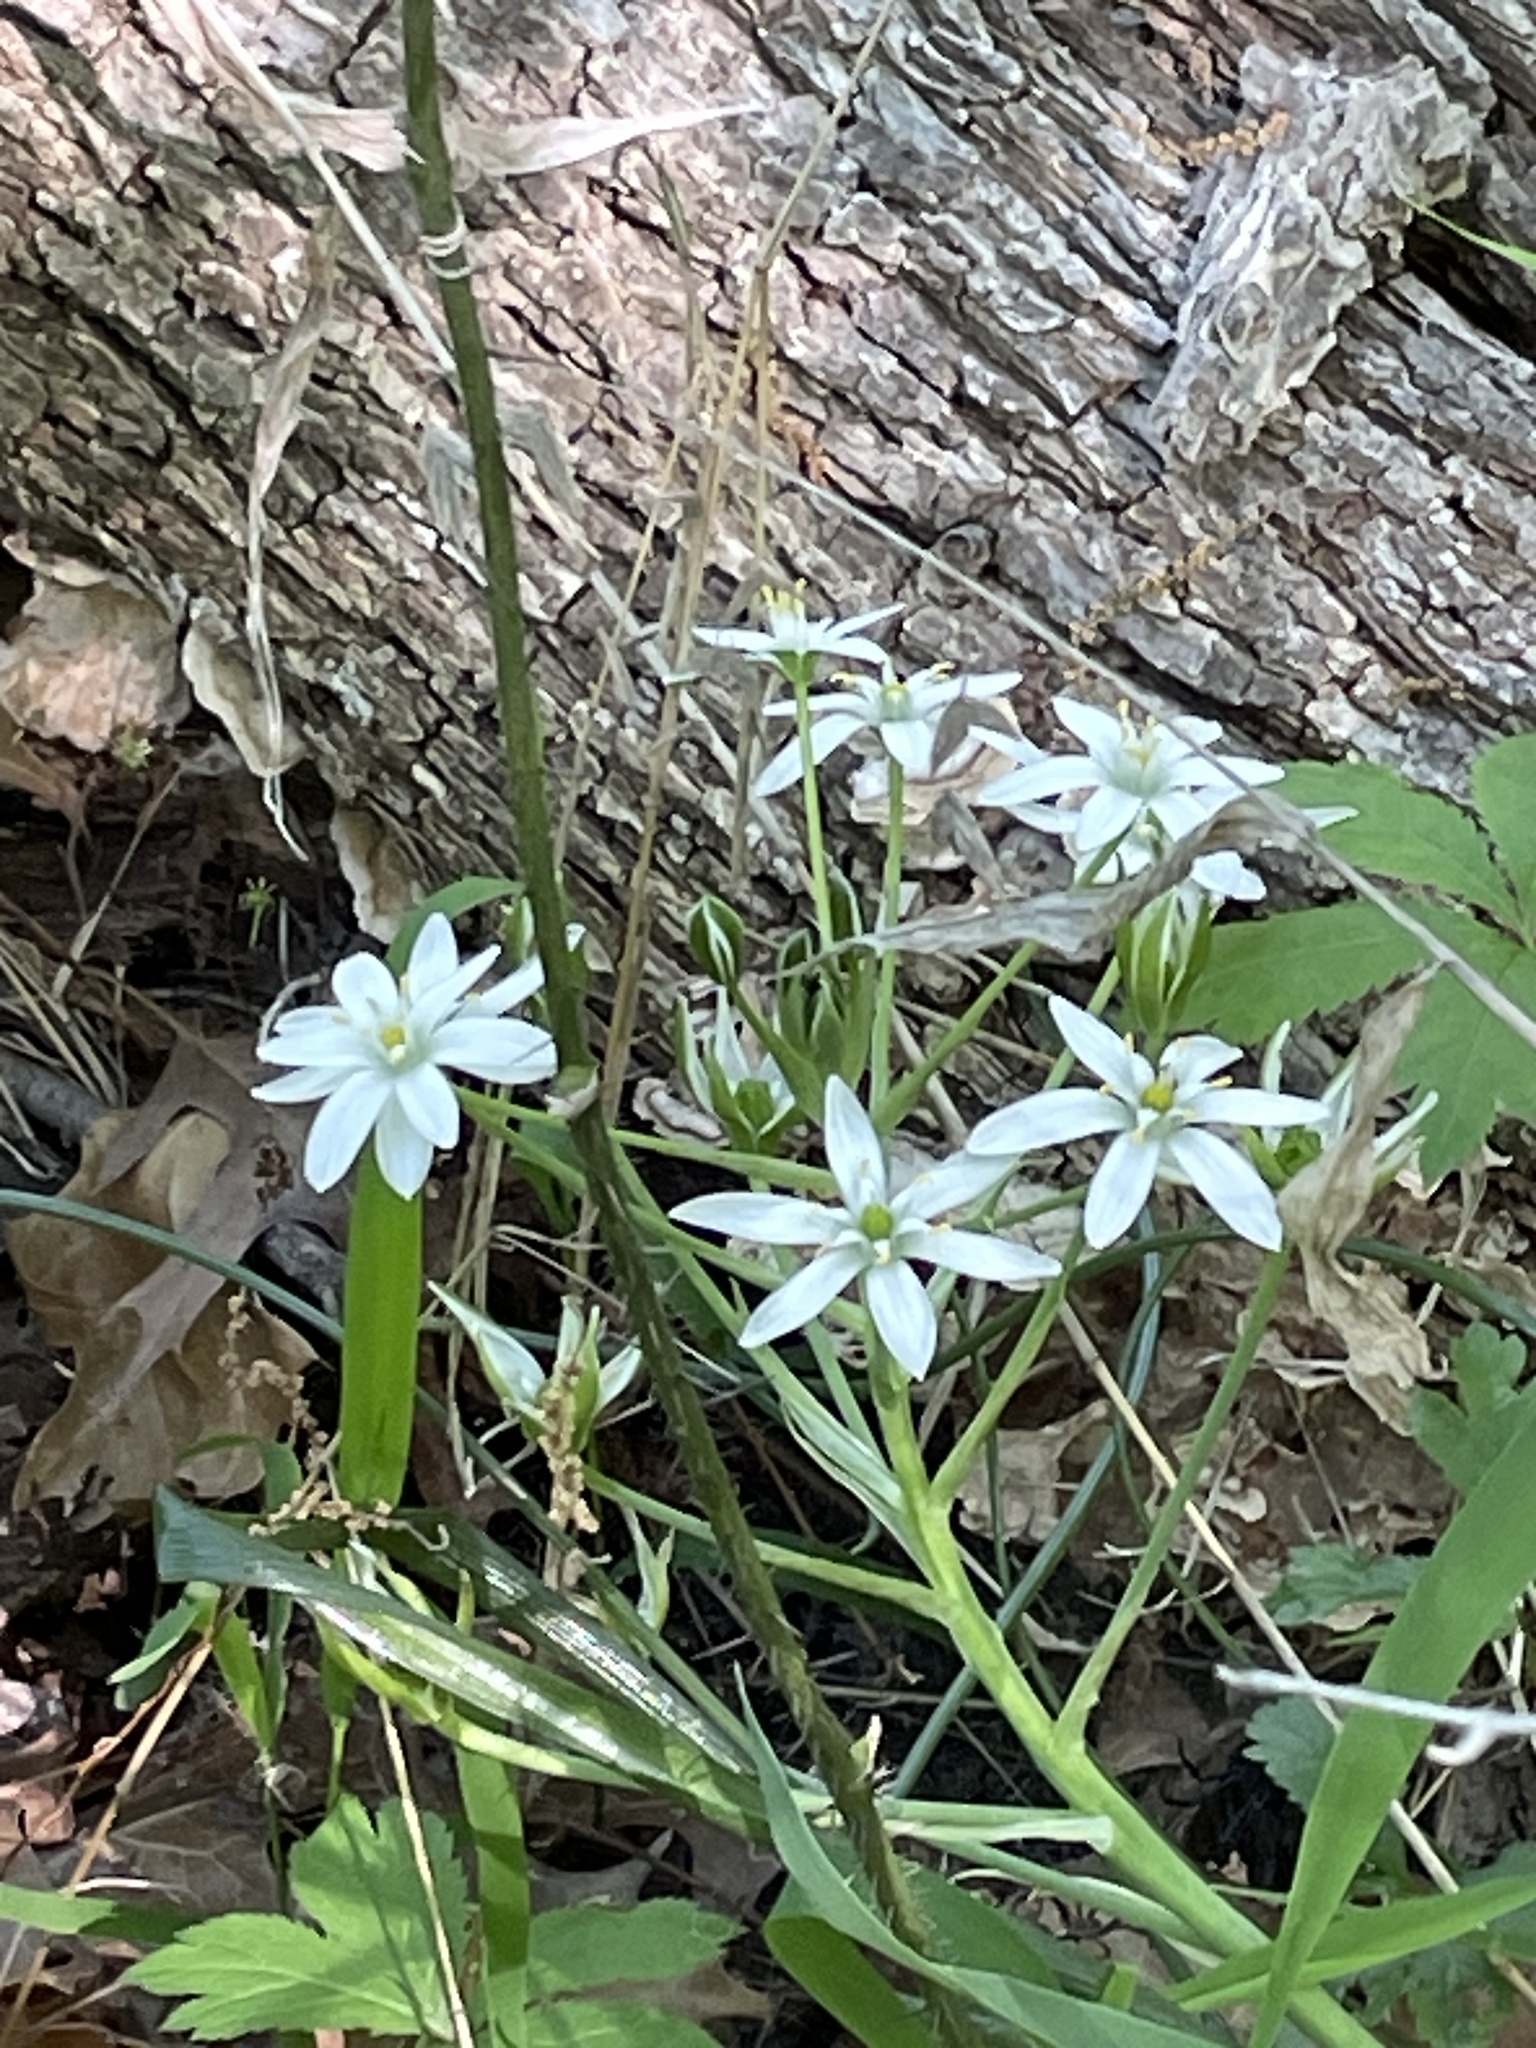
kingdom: Plantae
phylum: Tracheophyta
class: Liliopsida
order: Asparagales
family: Asparagaceae
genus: Ornithogalum
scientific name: Ornithogalum umbellatum
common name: Garden star-of-bethlehem
